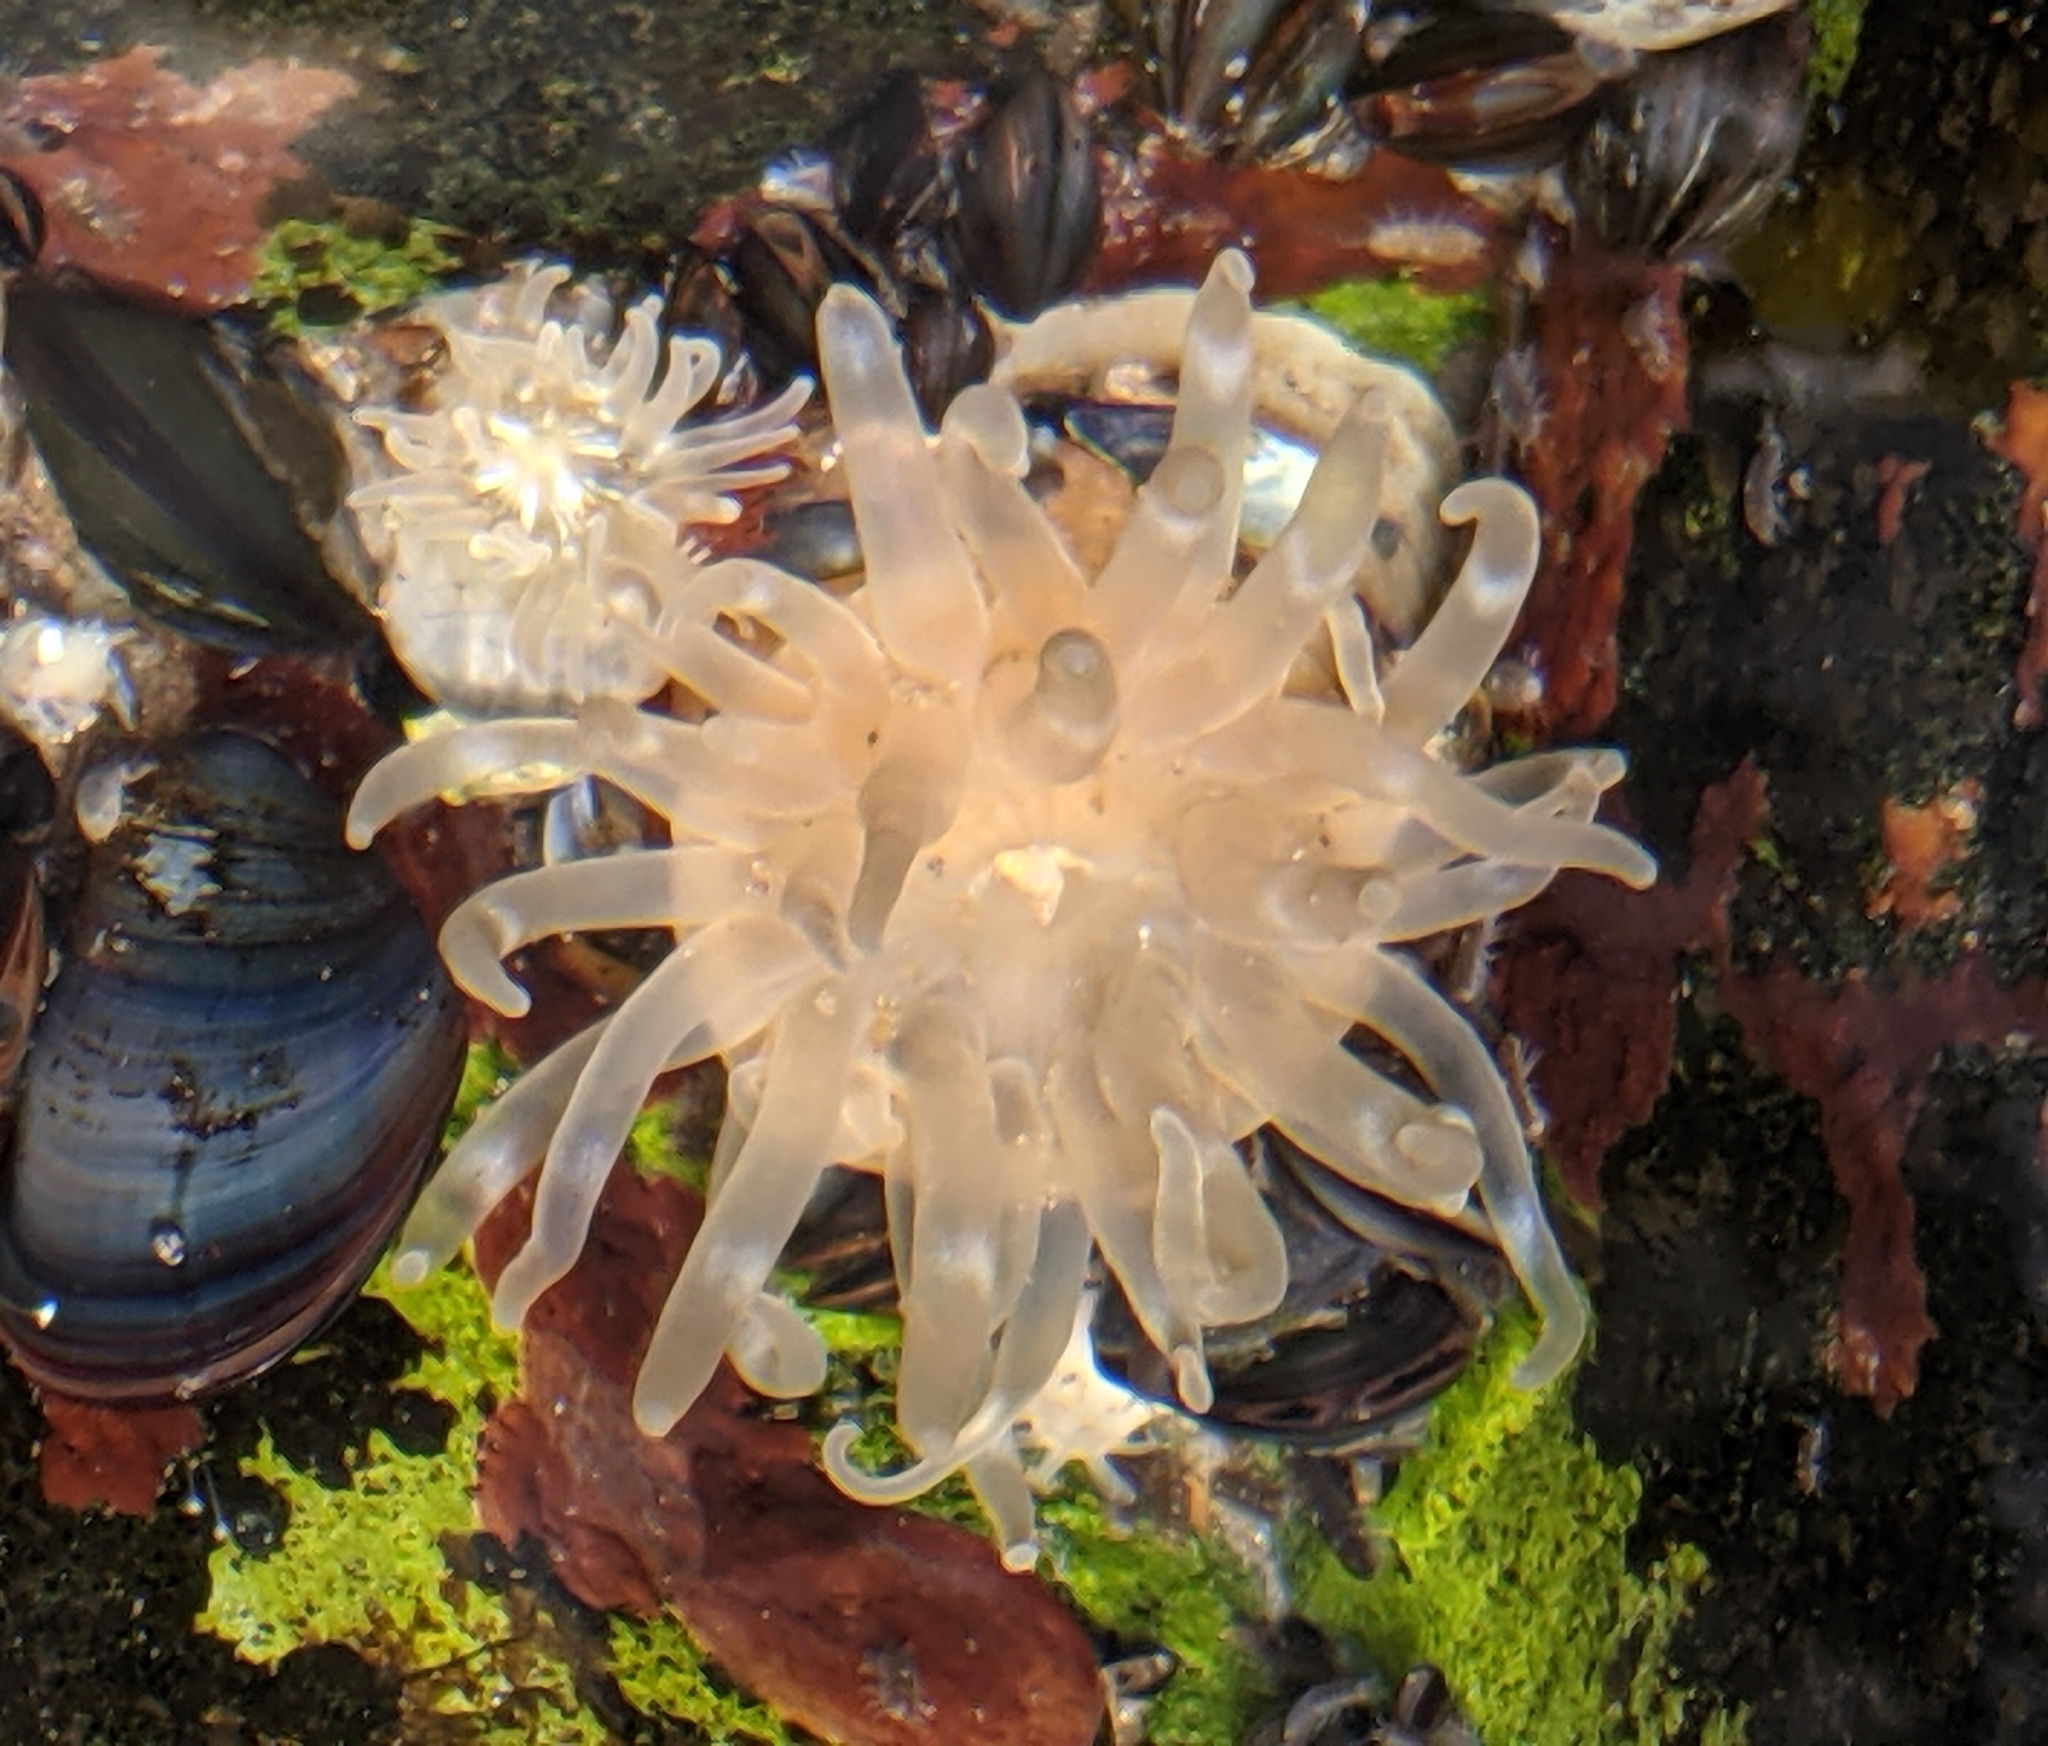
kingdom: Animalia
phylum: Cnidaria
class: Anthozoa
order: Actiniaria
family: Actiniidae
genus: Aulactinia
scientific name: Aulactinia stella
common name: Silver-spotted sea anemone
